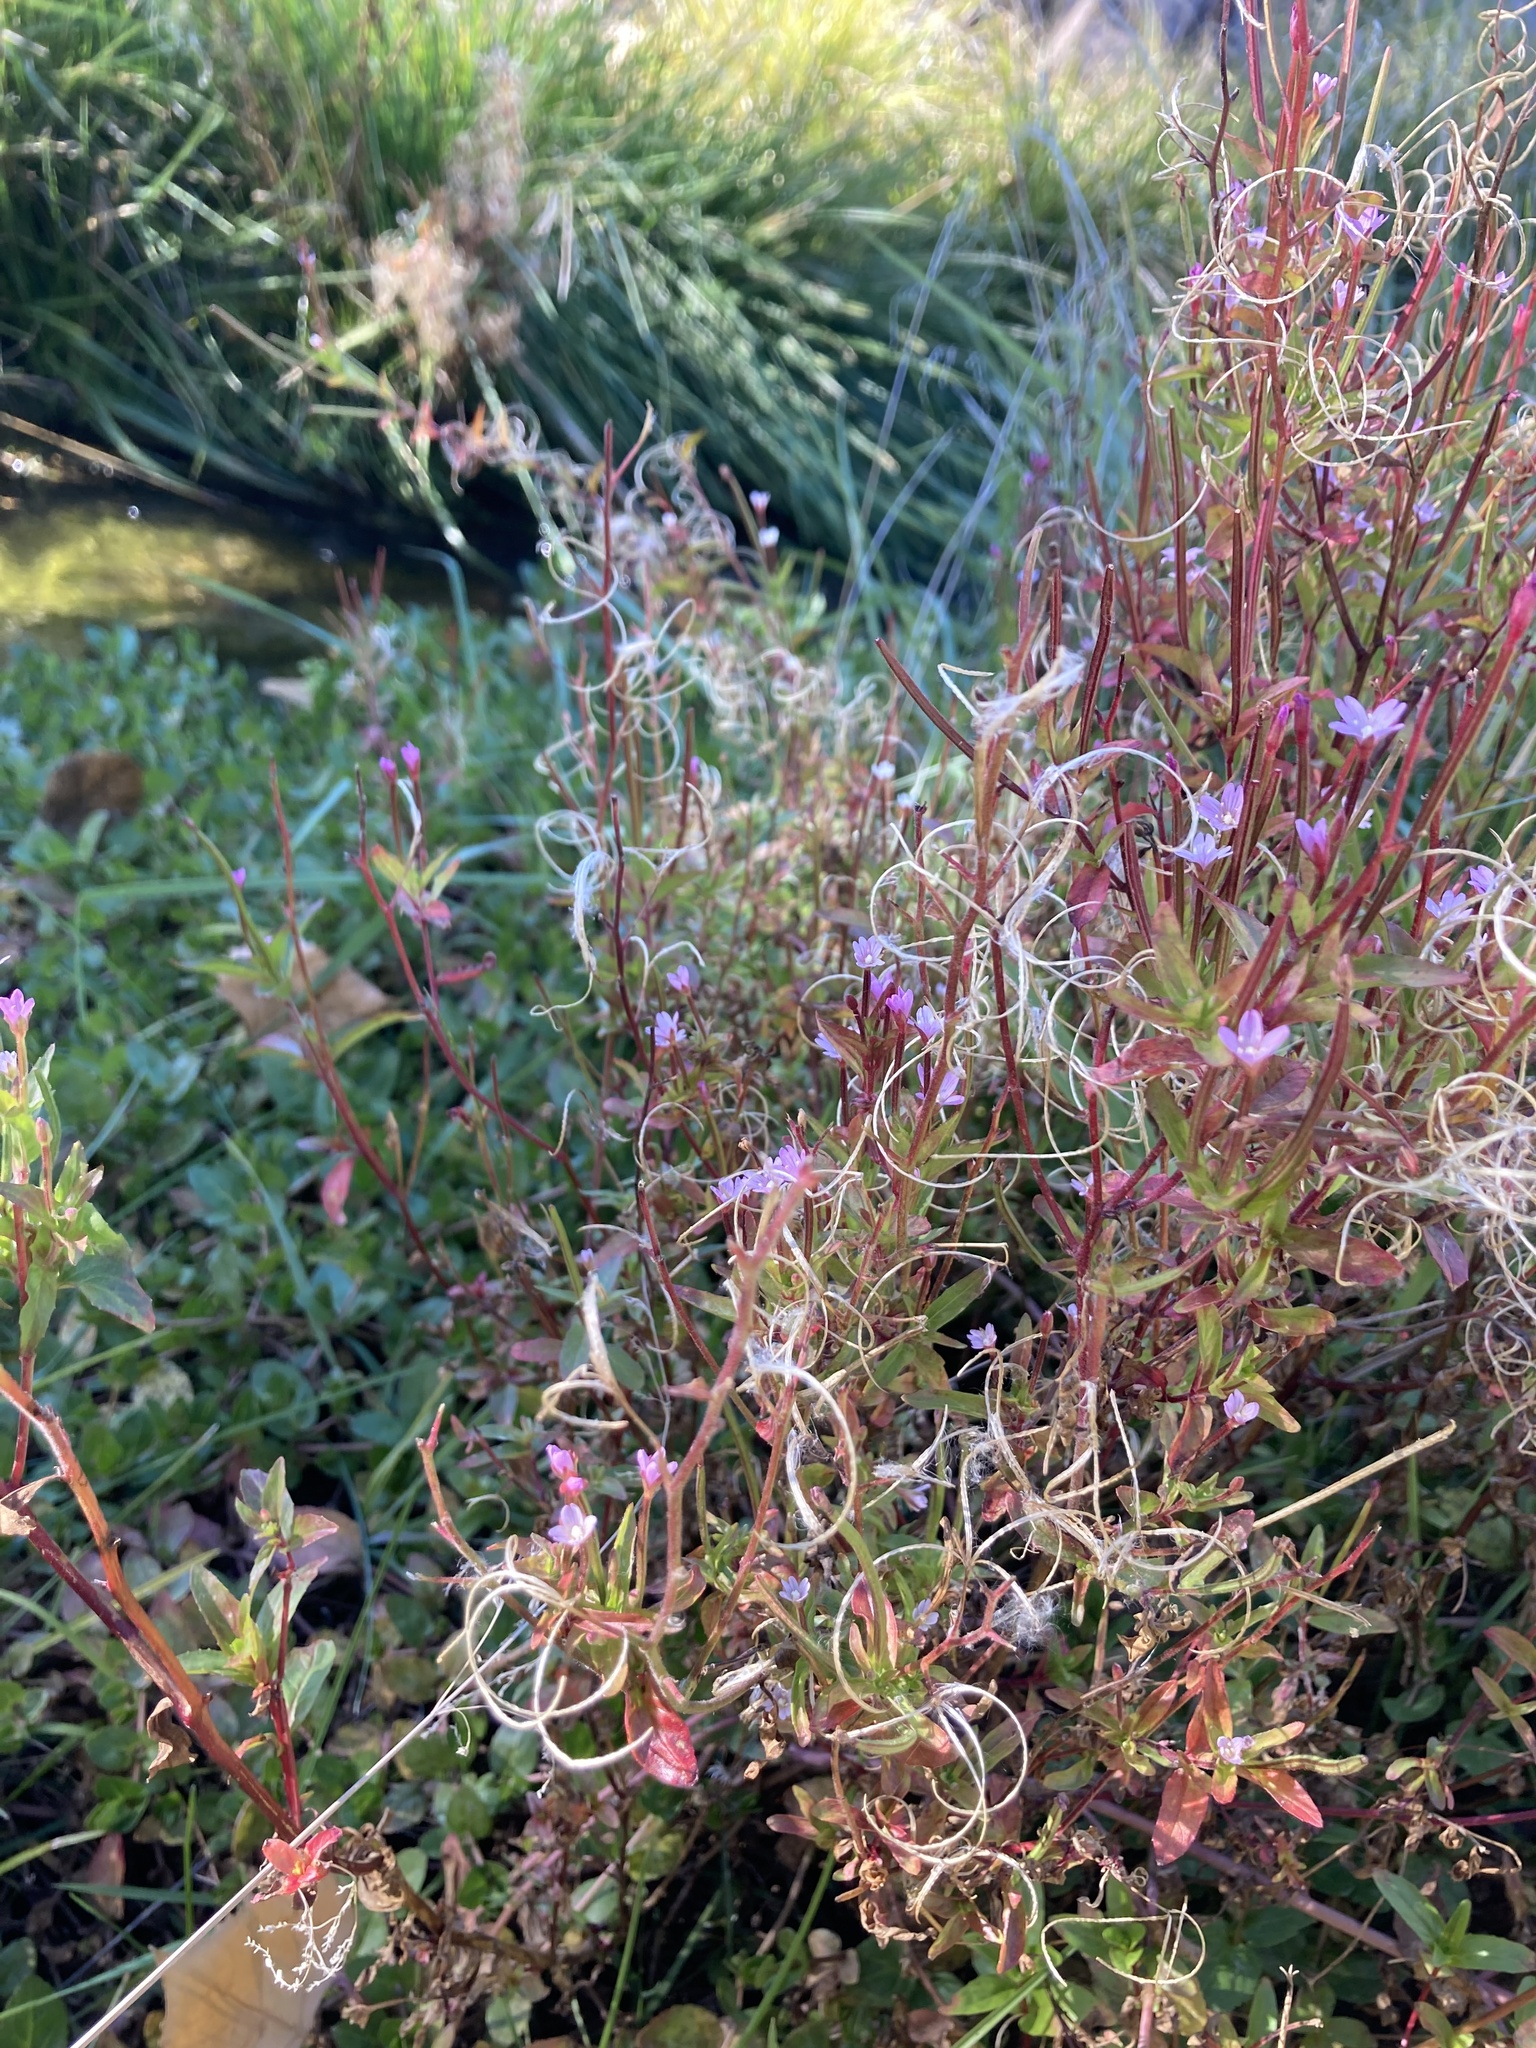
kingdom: Plantae
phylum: Tracheophyta
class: Magnoliopsida
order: Myrtales
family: Onagraceae
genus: Epilobium
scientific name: Epilobium ciliatum
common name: American willowherb
